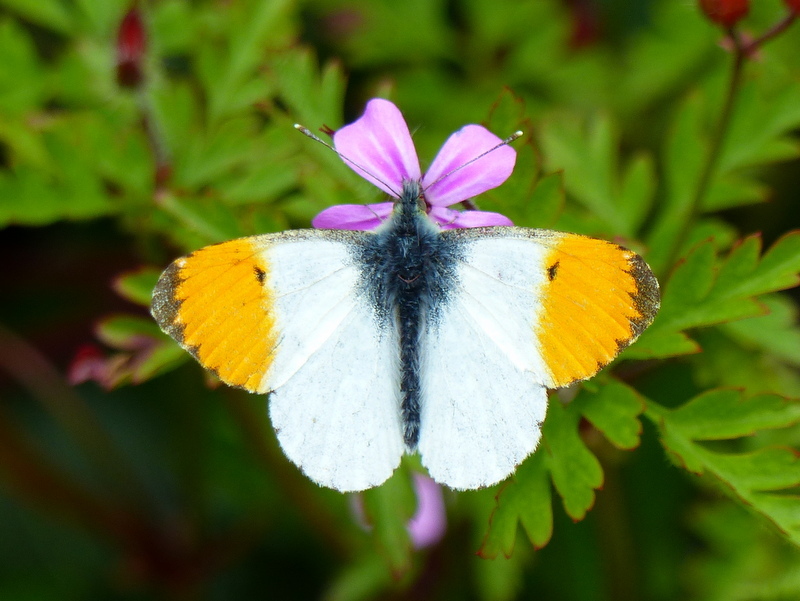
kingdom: Animalia
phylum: Arthropoda
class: Insecta
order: Lepidoptera
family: Pieridae
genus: Anthocharis
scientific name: Anthocharis cardamines
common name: Orange-tip
